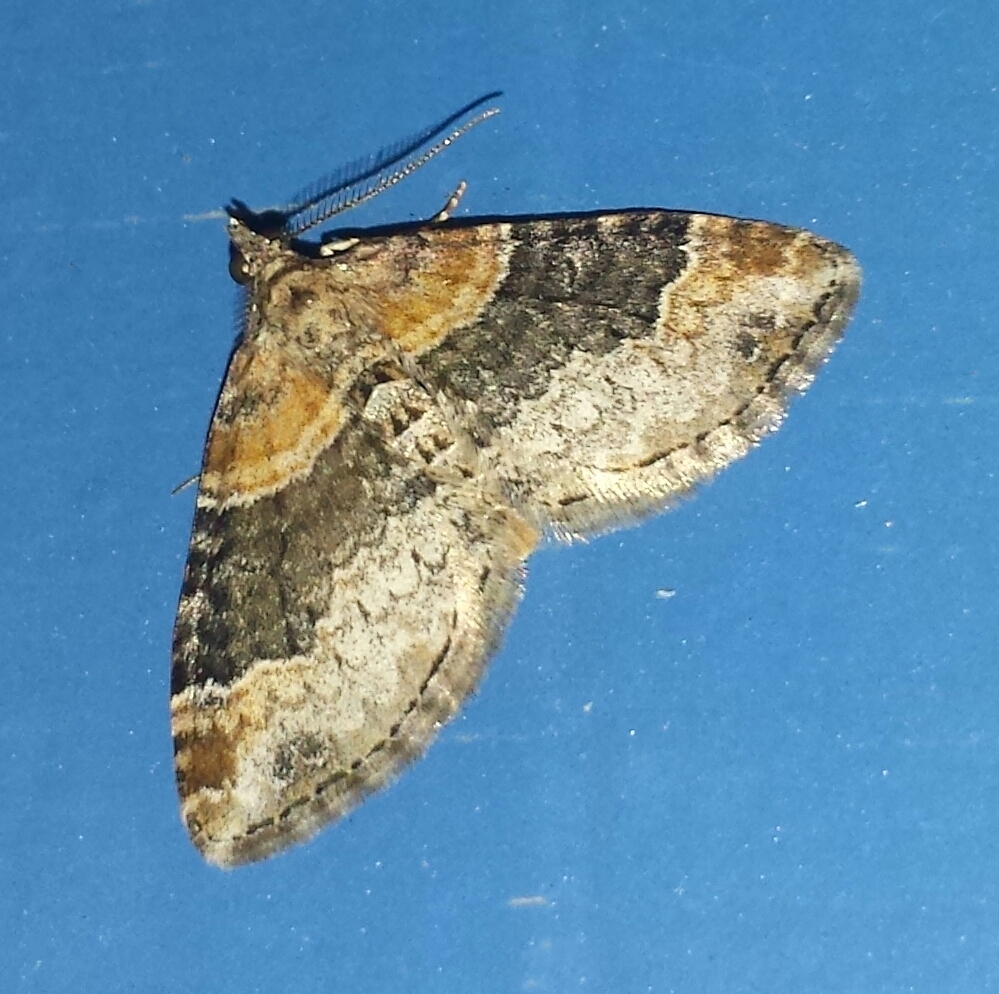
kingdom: Animalia
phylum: Arthropoda
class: Insecta
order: Lepidoptera
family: Geometridae
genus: Xanthorhoe
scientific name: Xanthorhoe ferrugata
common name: Dark-barred twin-spot carpet
